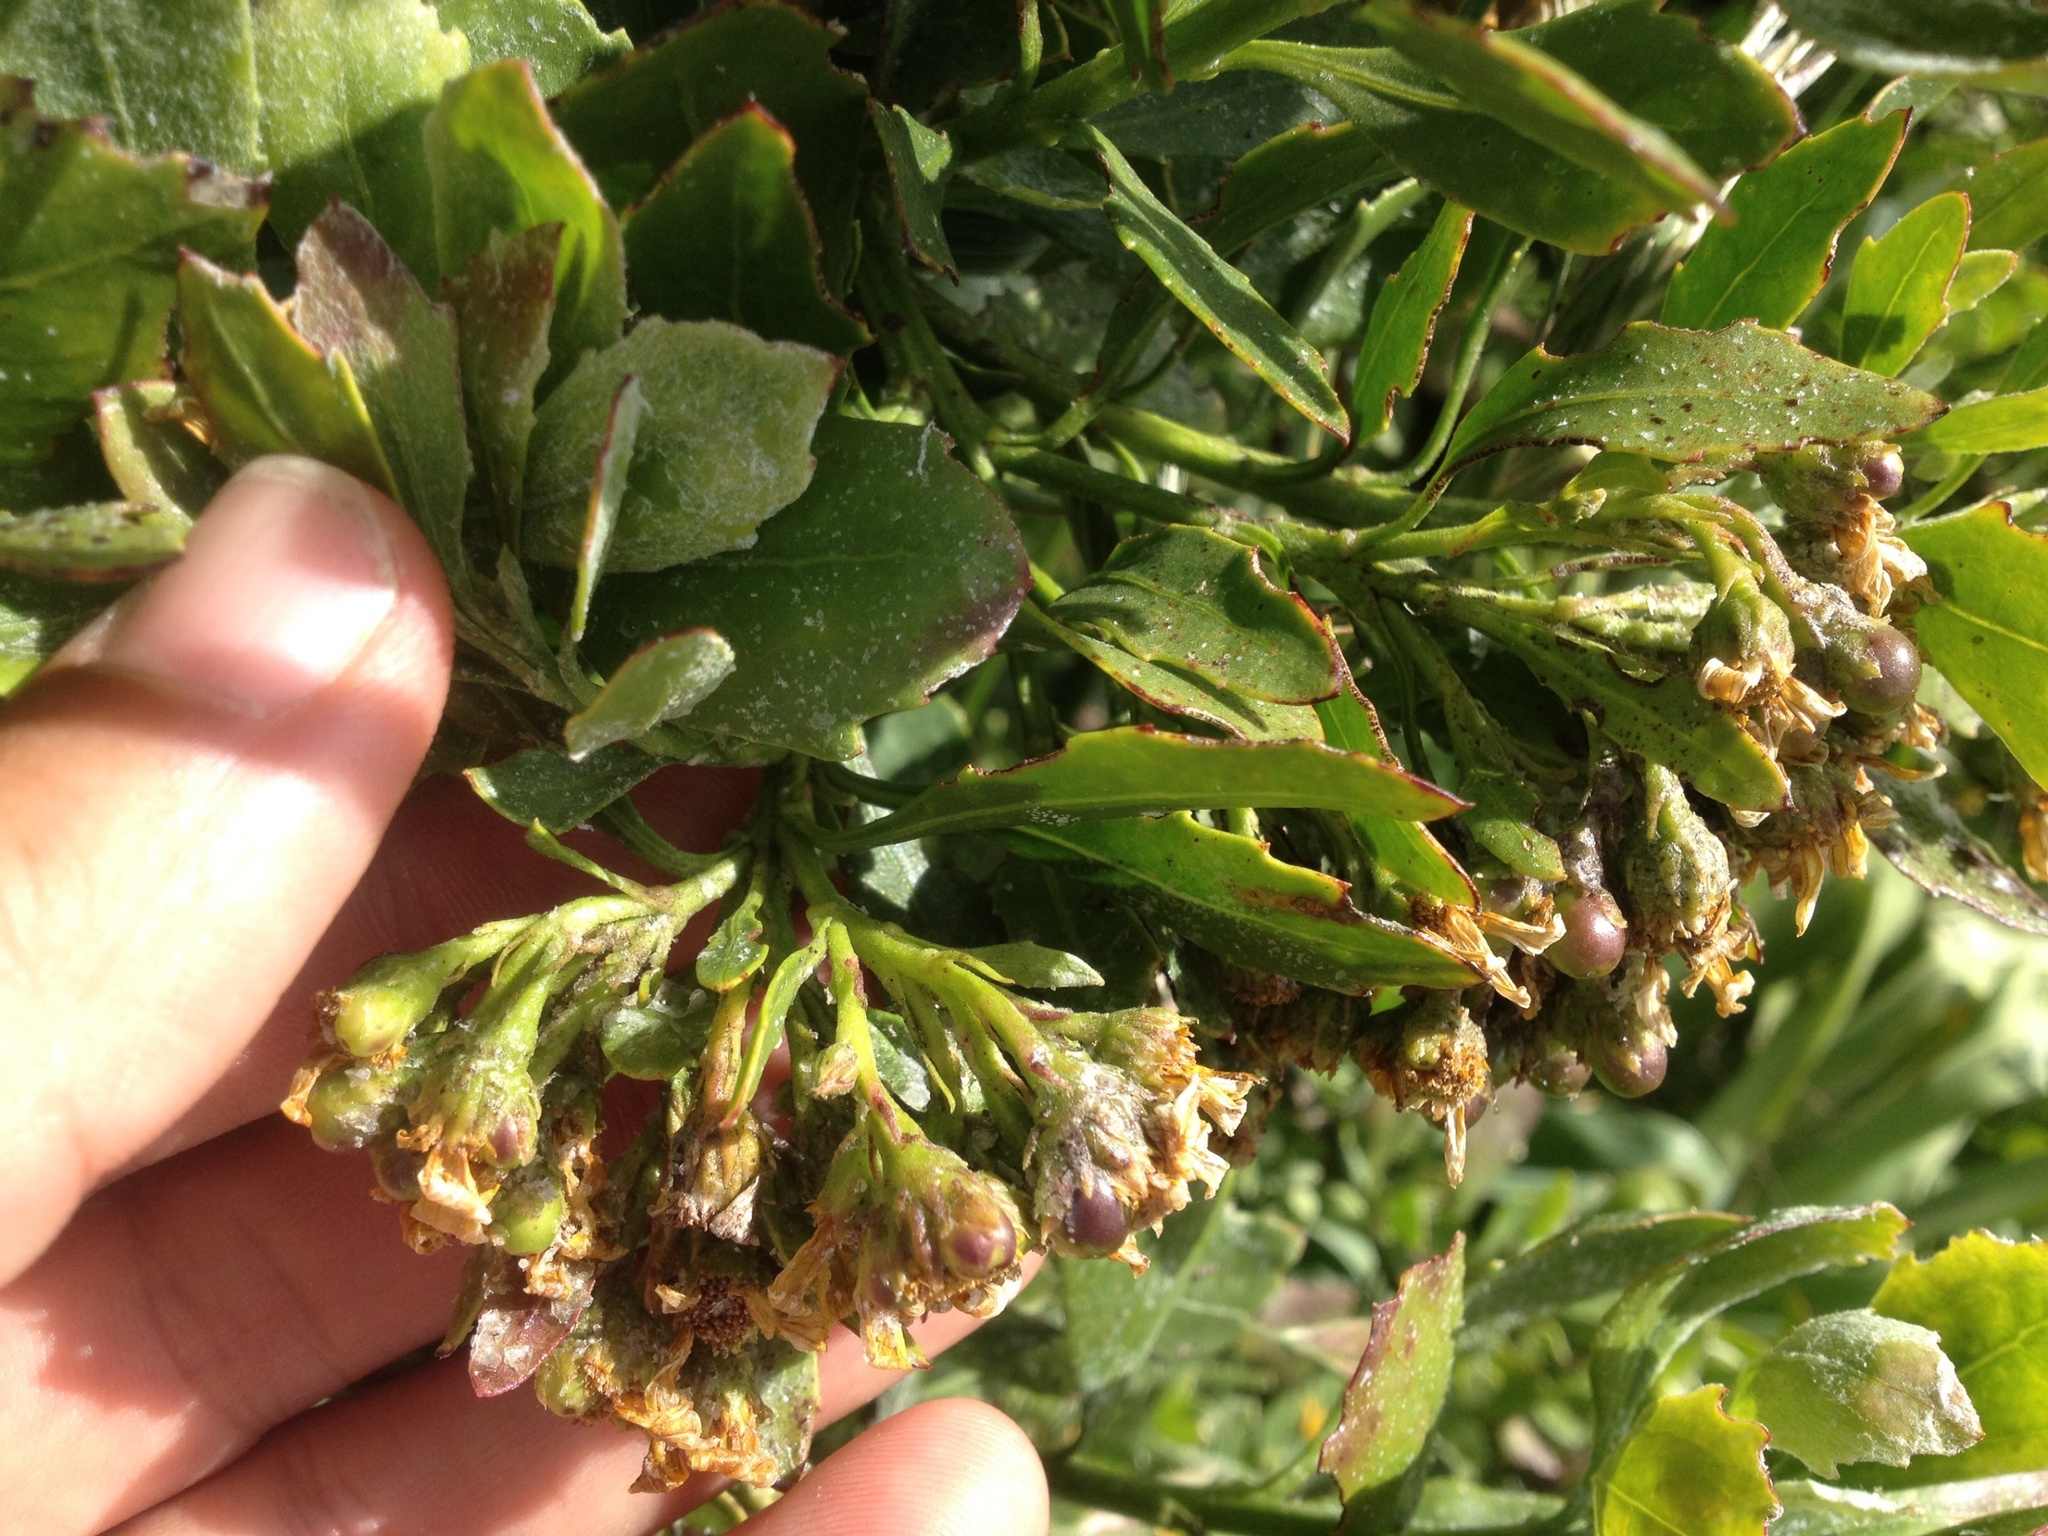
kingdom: Plantae
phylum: Tracheophyta
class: Magnoliopsida
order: Asterales
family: Asteraceae
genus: Osteospermum
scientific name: Osteospermum moniliferum
